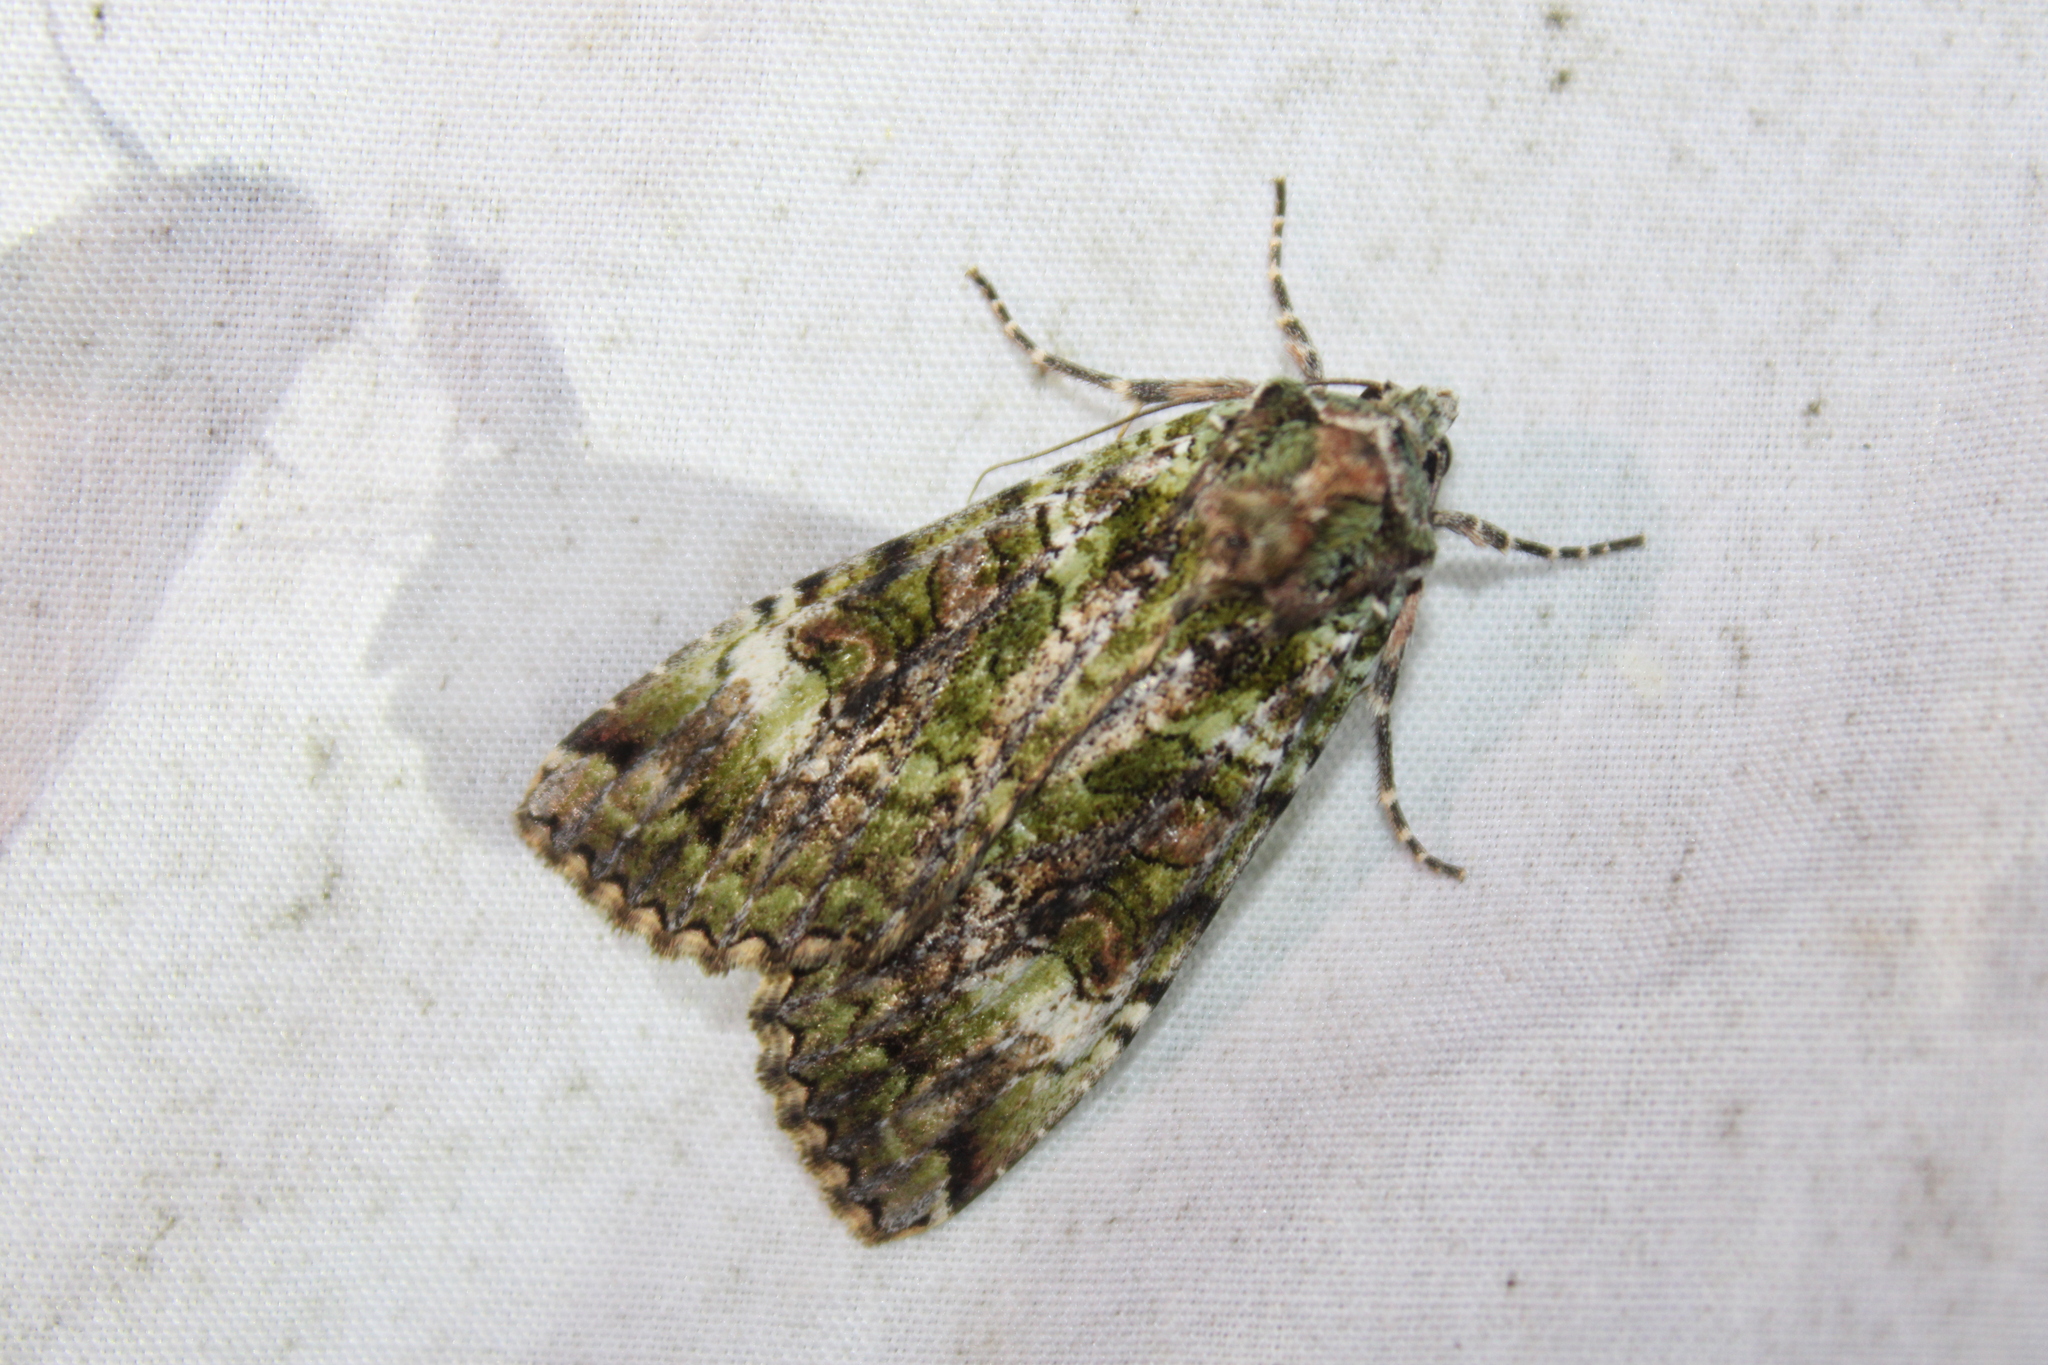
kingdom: Animalia
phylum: Arthropoda
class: Insecta
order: Lepidoptera
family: Noctuidae
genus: Anaplectoides
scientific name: Anaplectoides prasina
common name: Green arches
